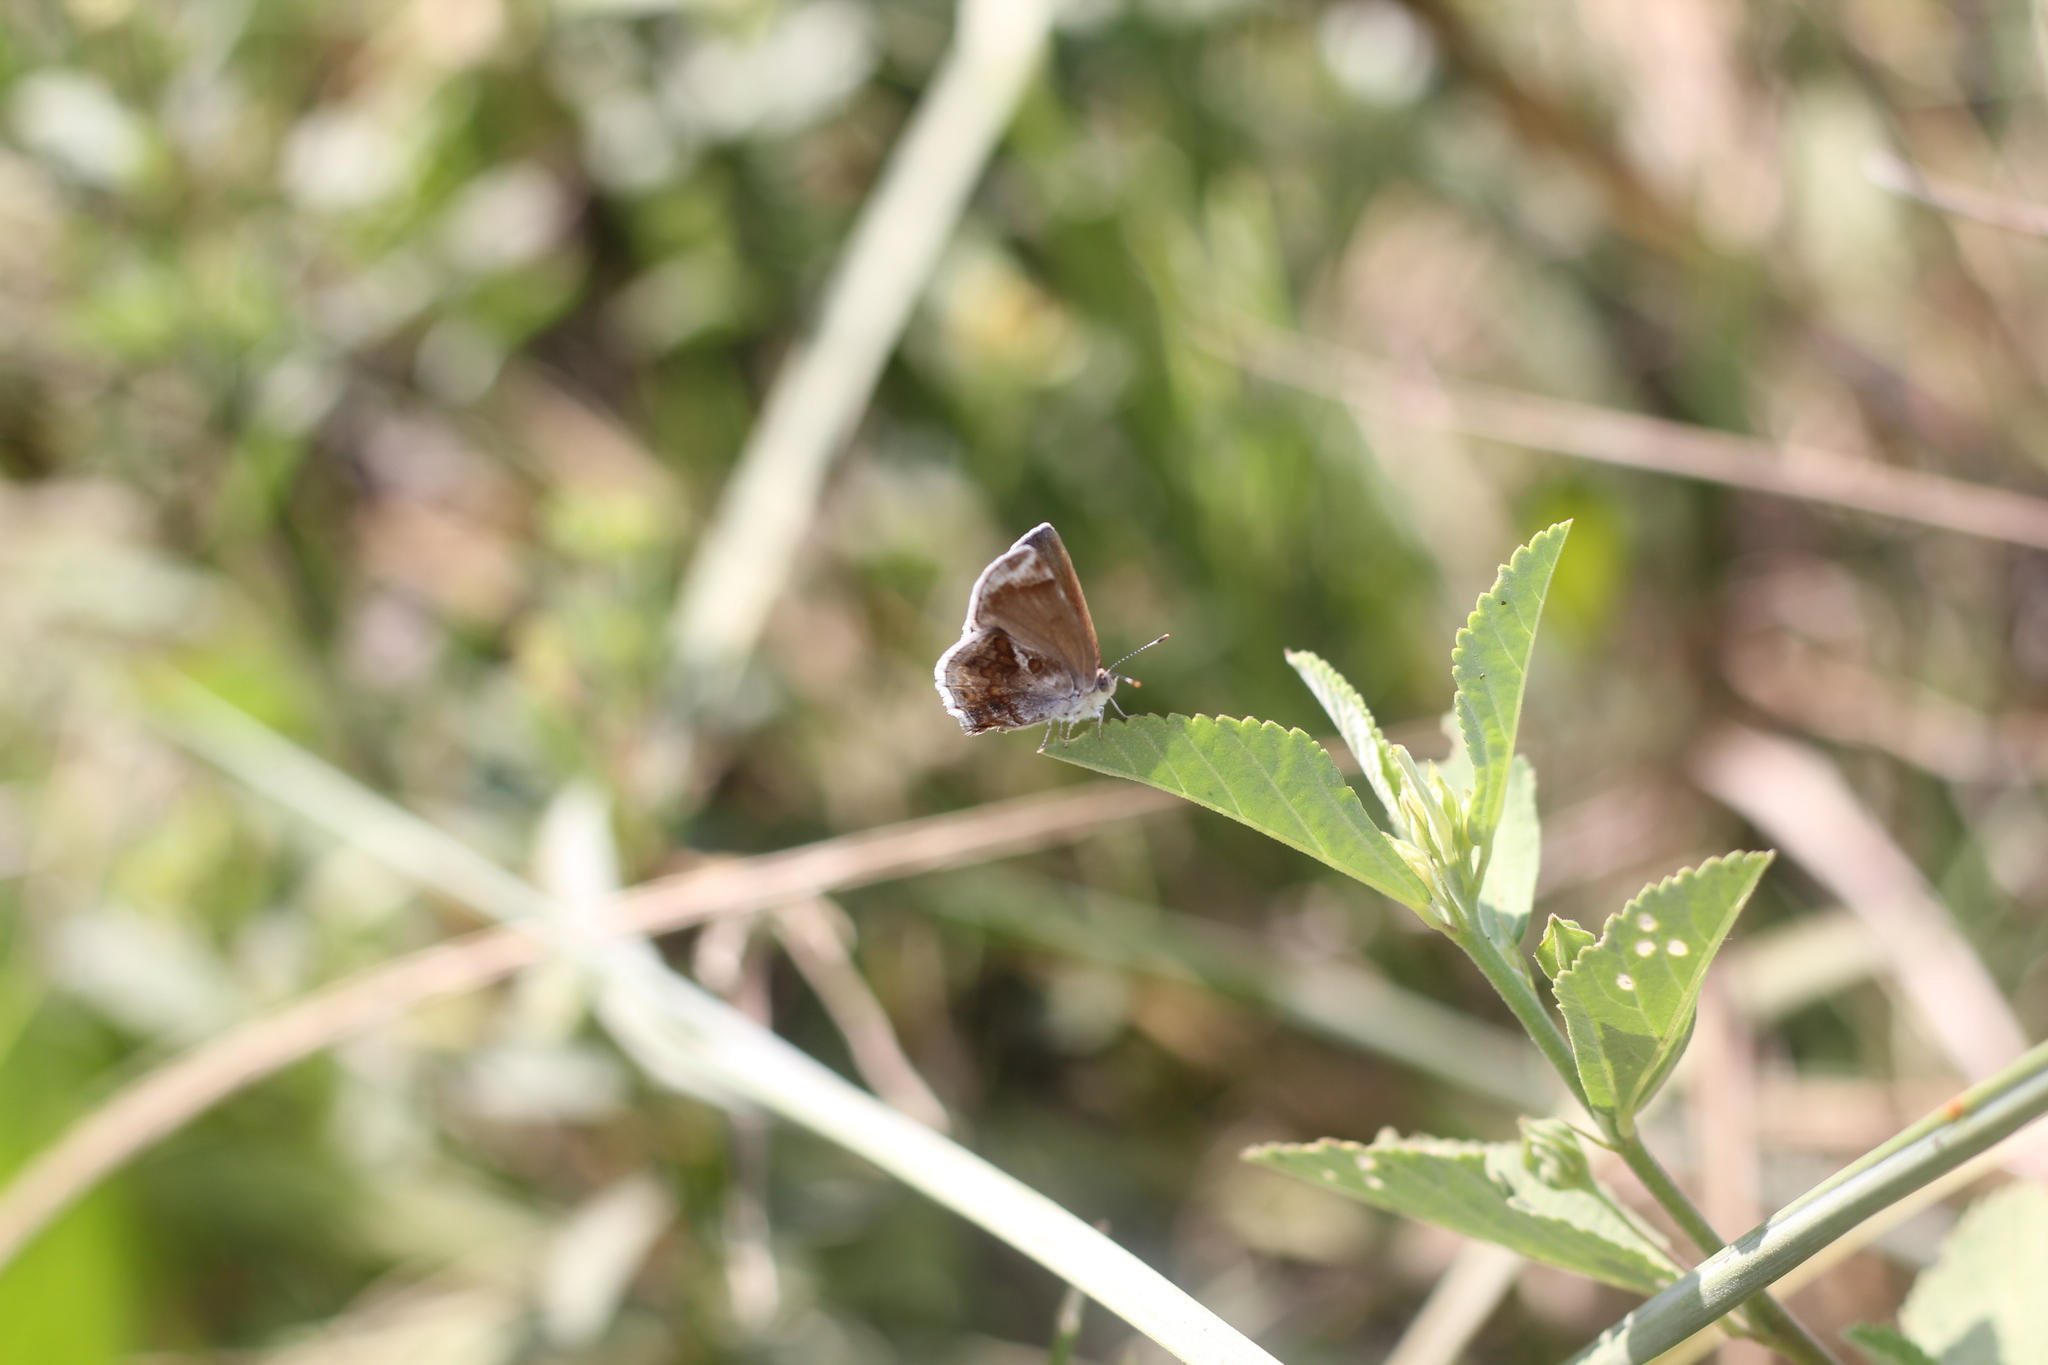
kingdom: Animalia
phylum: Arthropoda
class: Insecta
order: Lepidoptera
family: Lycaenidae
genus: Strymon
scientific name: Strymon bazochii
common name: Lantana scrub-hairstreak
